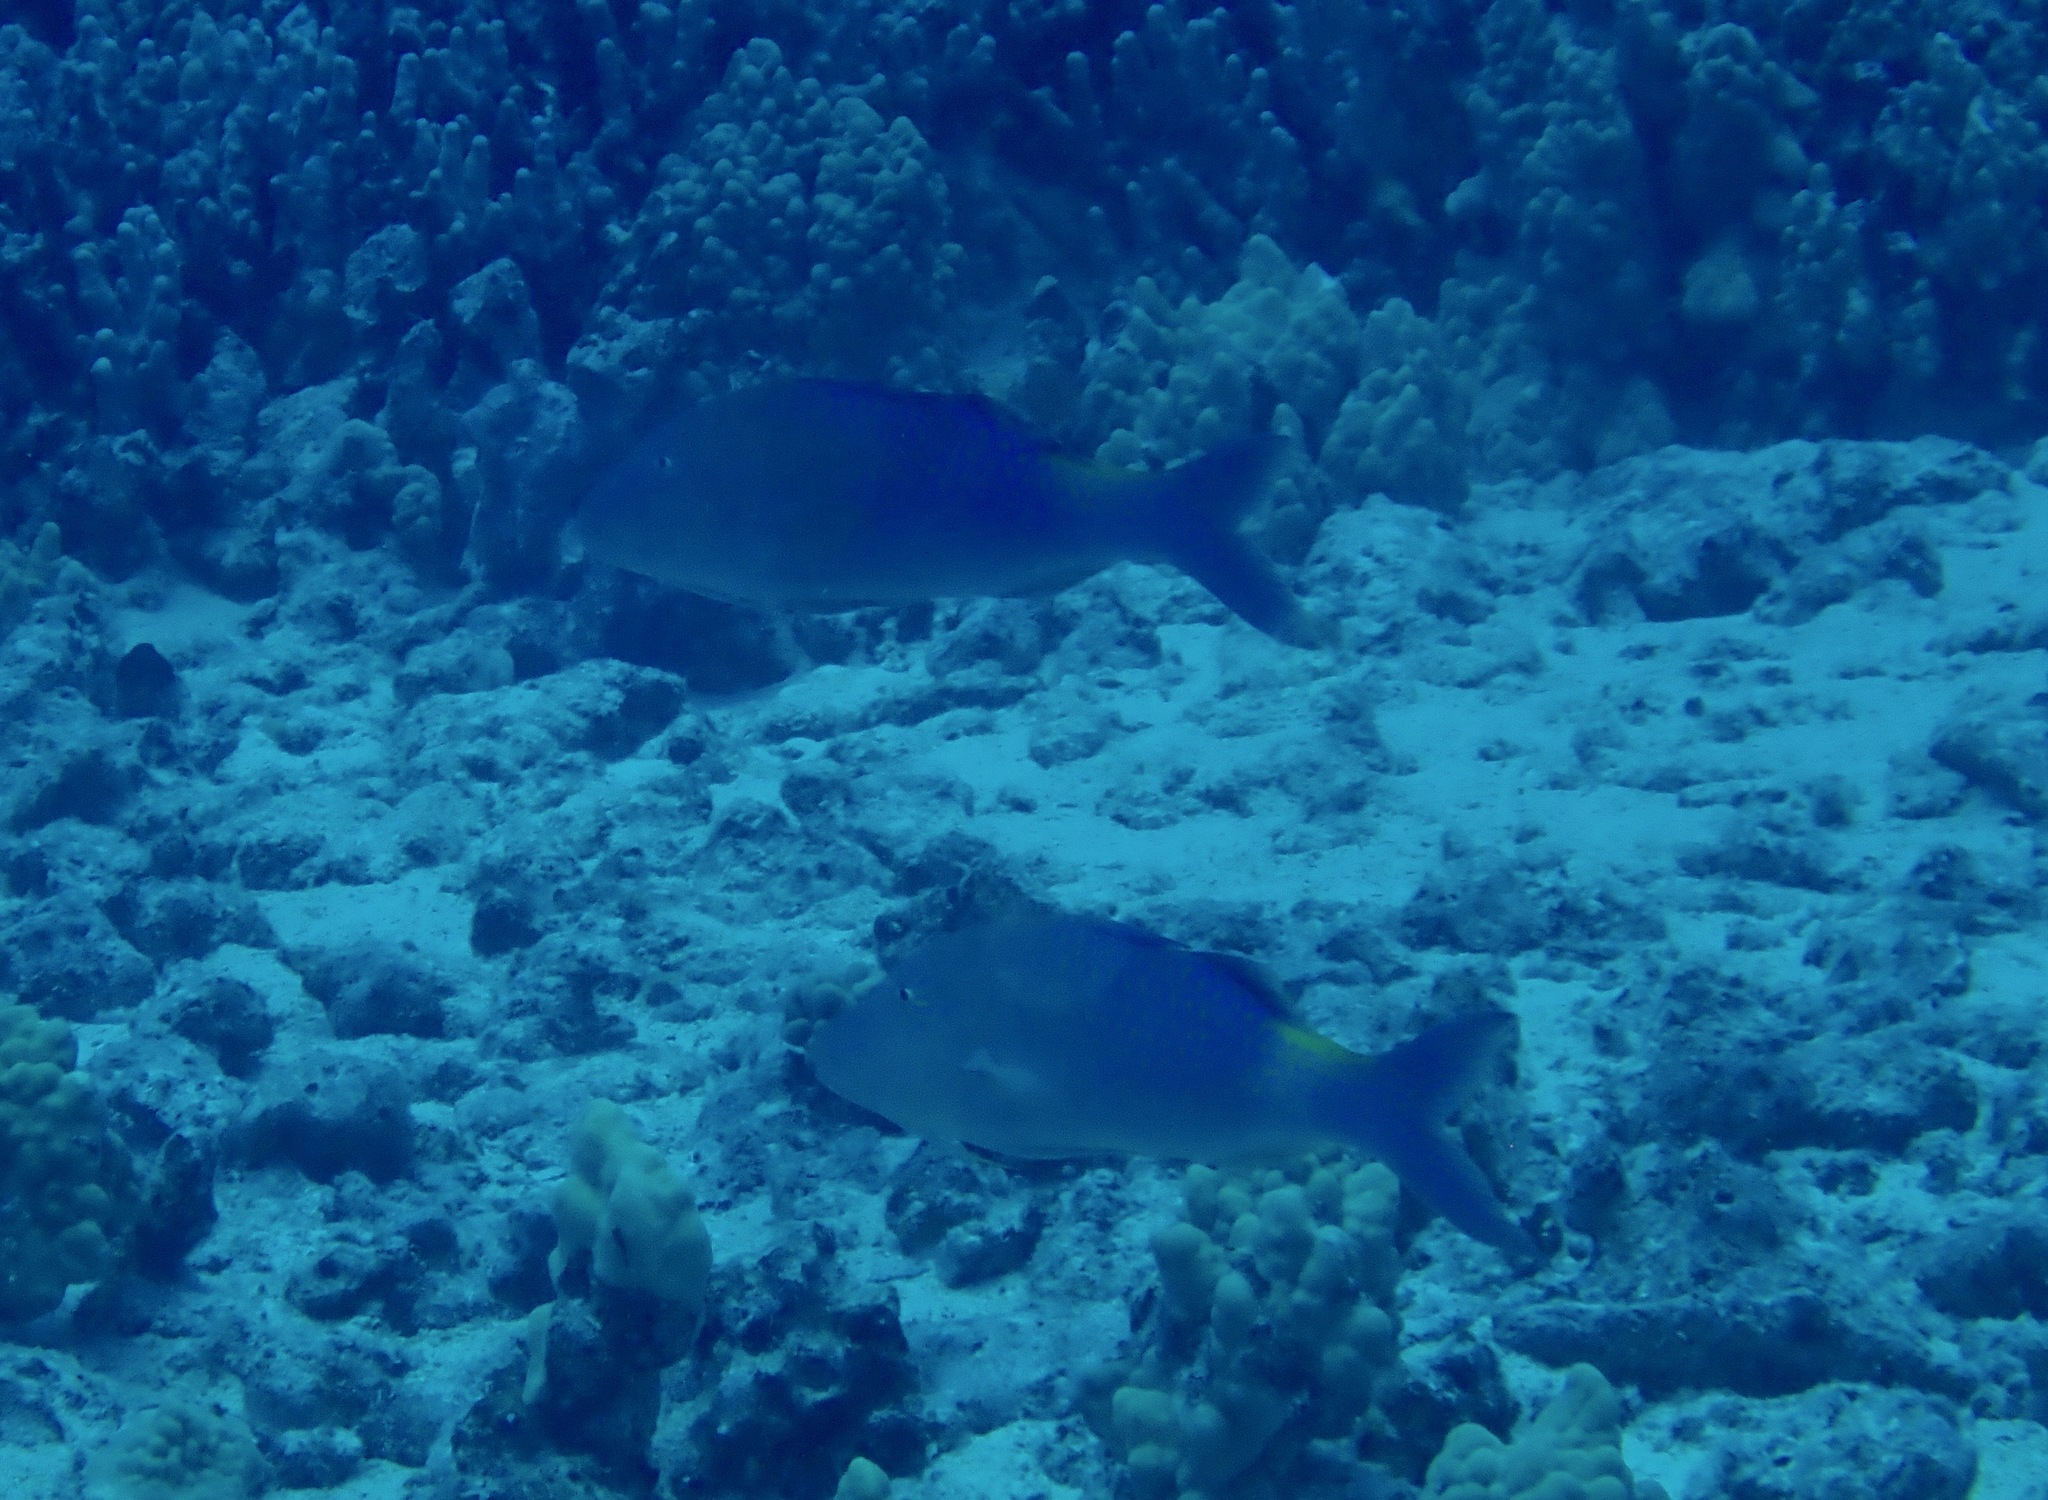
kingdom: Animalia
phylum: Chordata
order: Perciformes
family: Mullidae
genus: Parupeneus
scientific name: Parupeneus cyclostomus
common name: Goldsaddle goatfish
